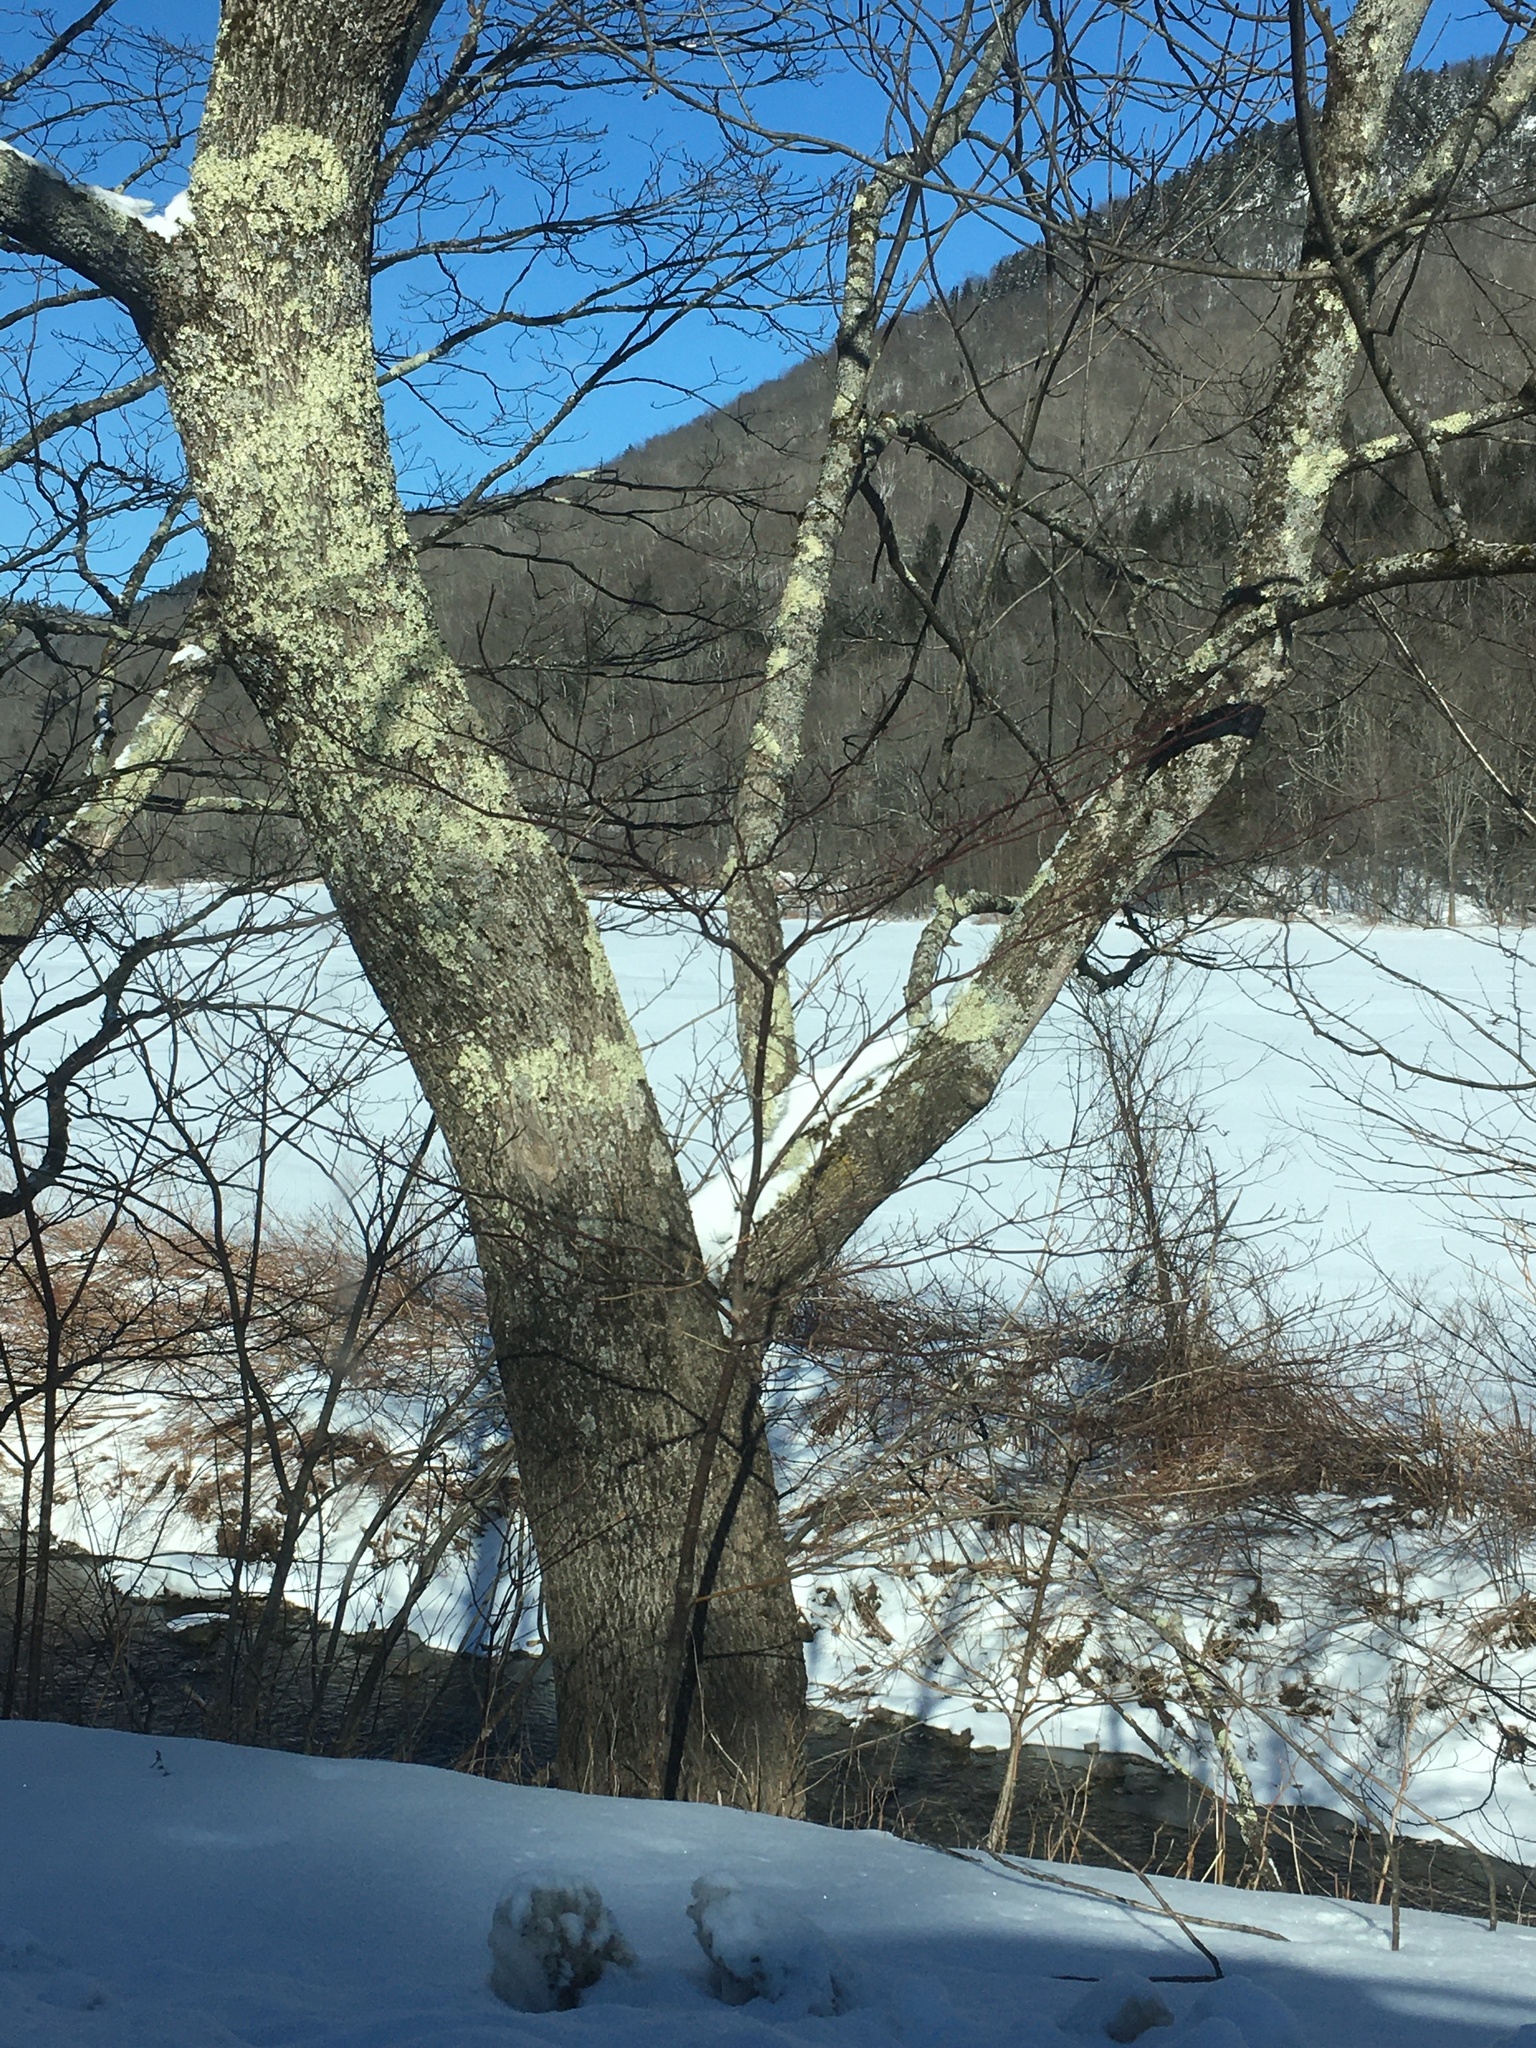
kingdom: Plantae
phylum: Tracheophyta
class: Magnoliopsida
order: Cornales
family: Cornaceae
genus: Cornus
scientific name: Cornus alternifolia
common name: Pagoda dogwood
